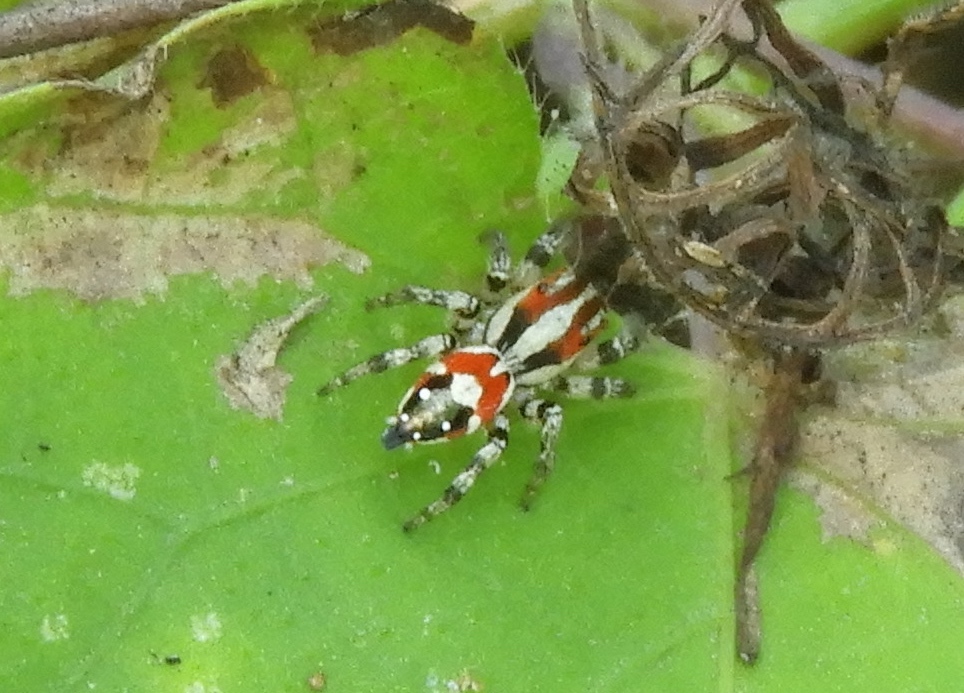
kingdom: Animalia
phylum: Arthropoda
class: Arachnida
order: Araneae
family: Salticidae
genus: Nycerella
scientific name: Nycerella delecta
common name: Jumping spiders
